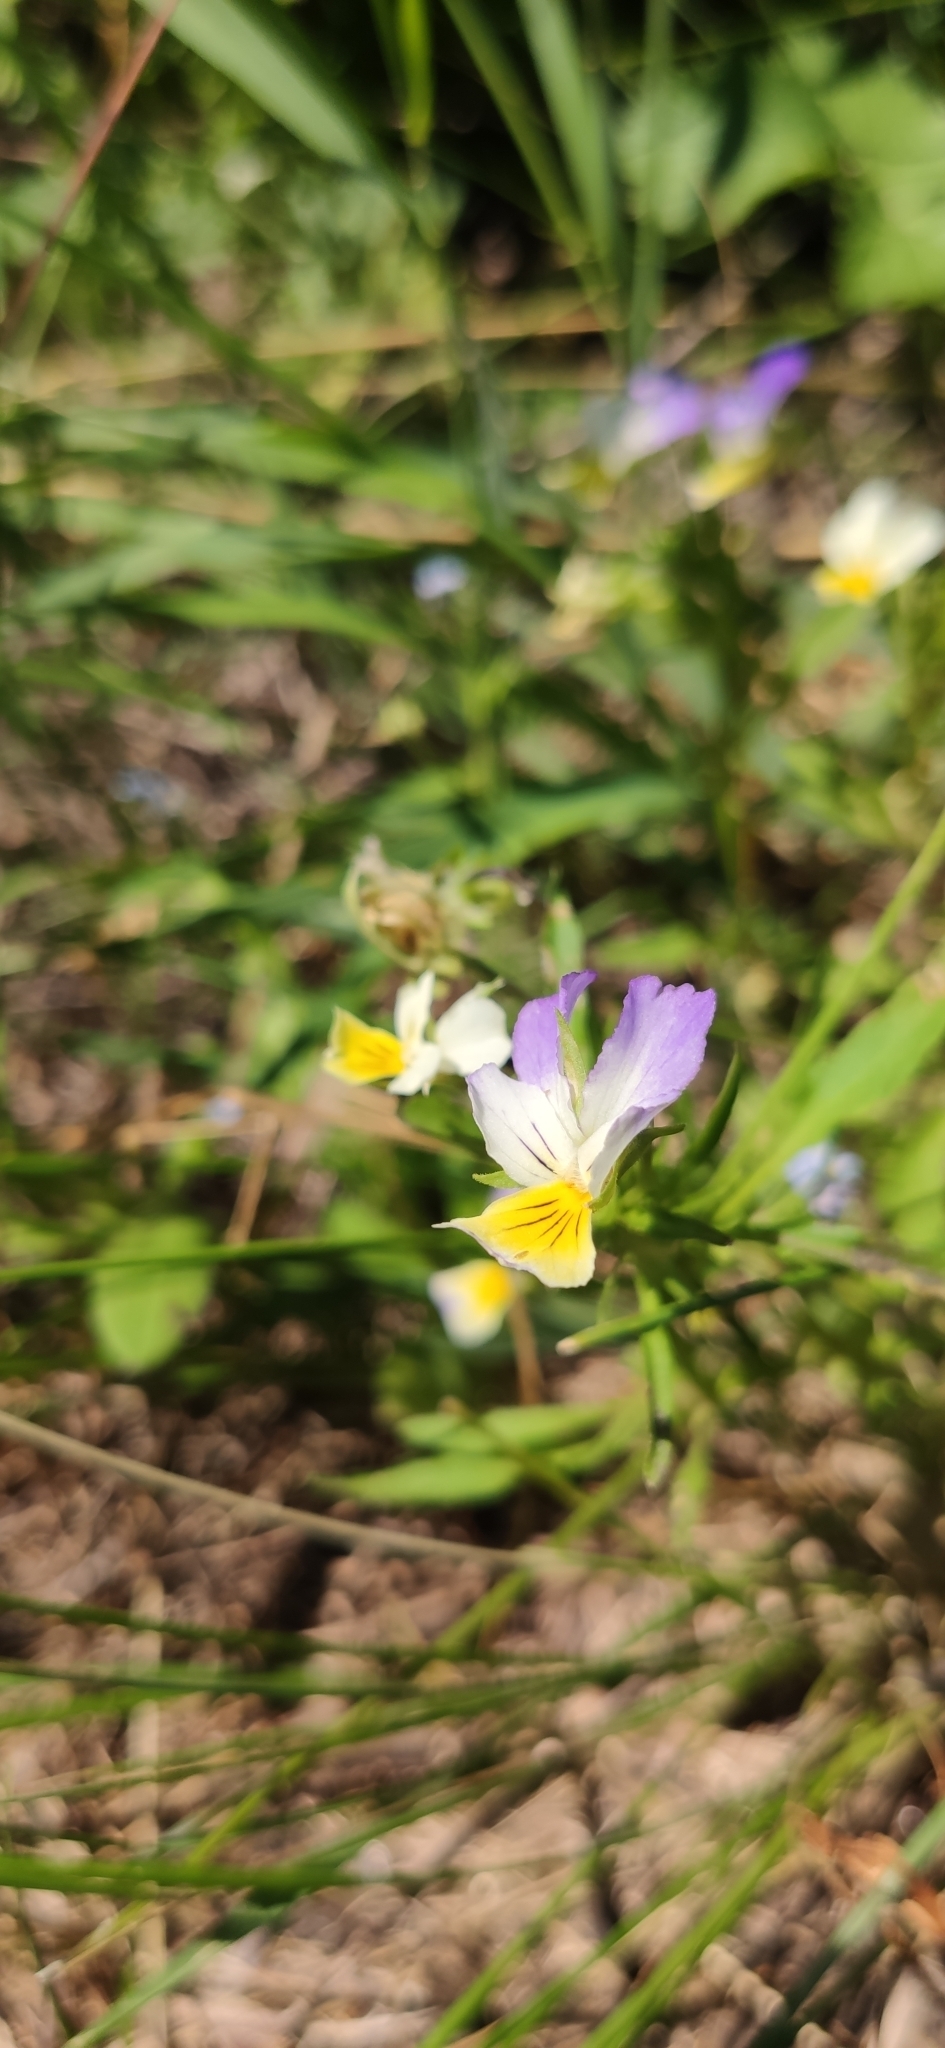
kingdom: Plantae
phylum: Tracheophyta
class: Magnoliopsida
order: Malpighiales
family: Violaceae
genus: Viola
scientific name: Viola tricolor
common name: Pansy
